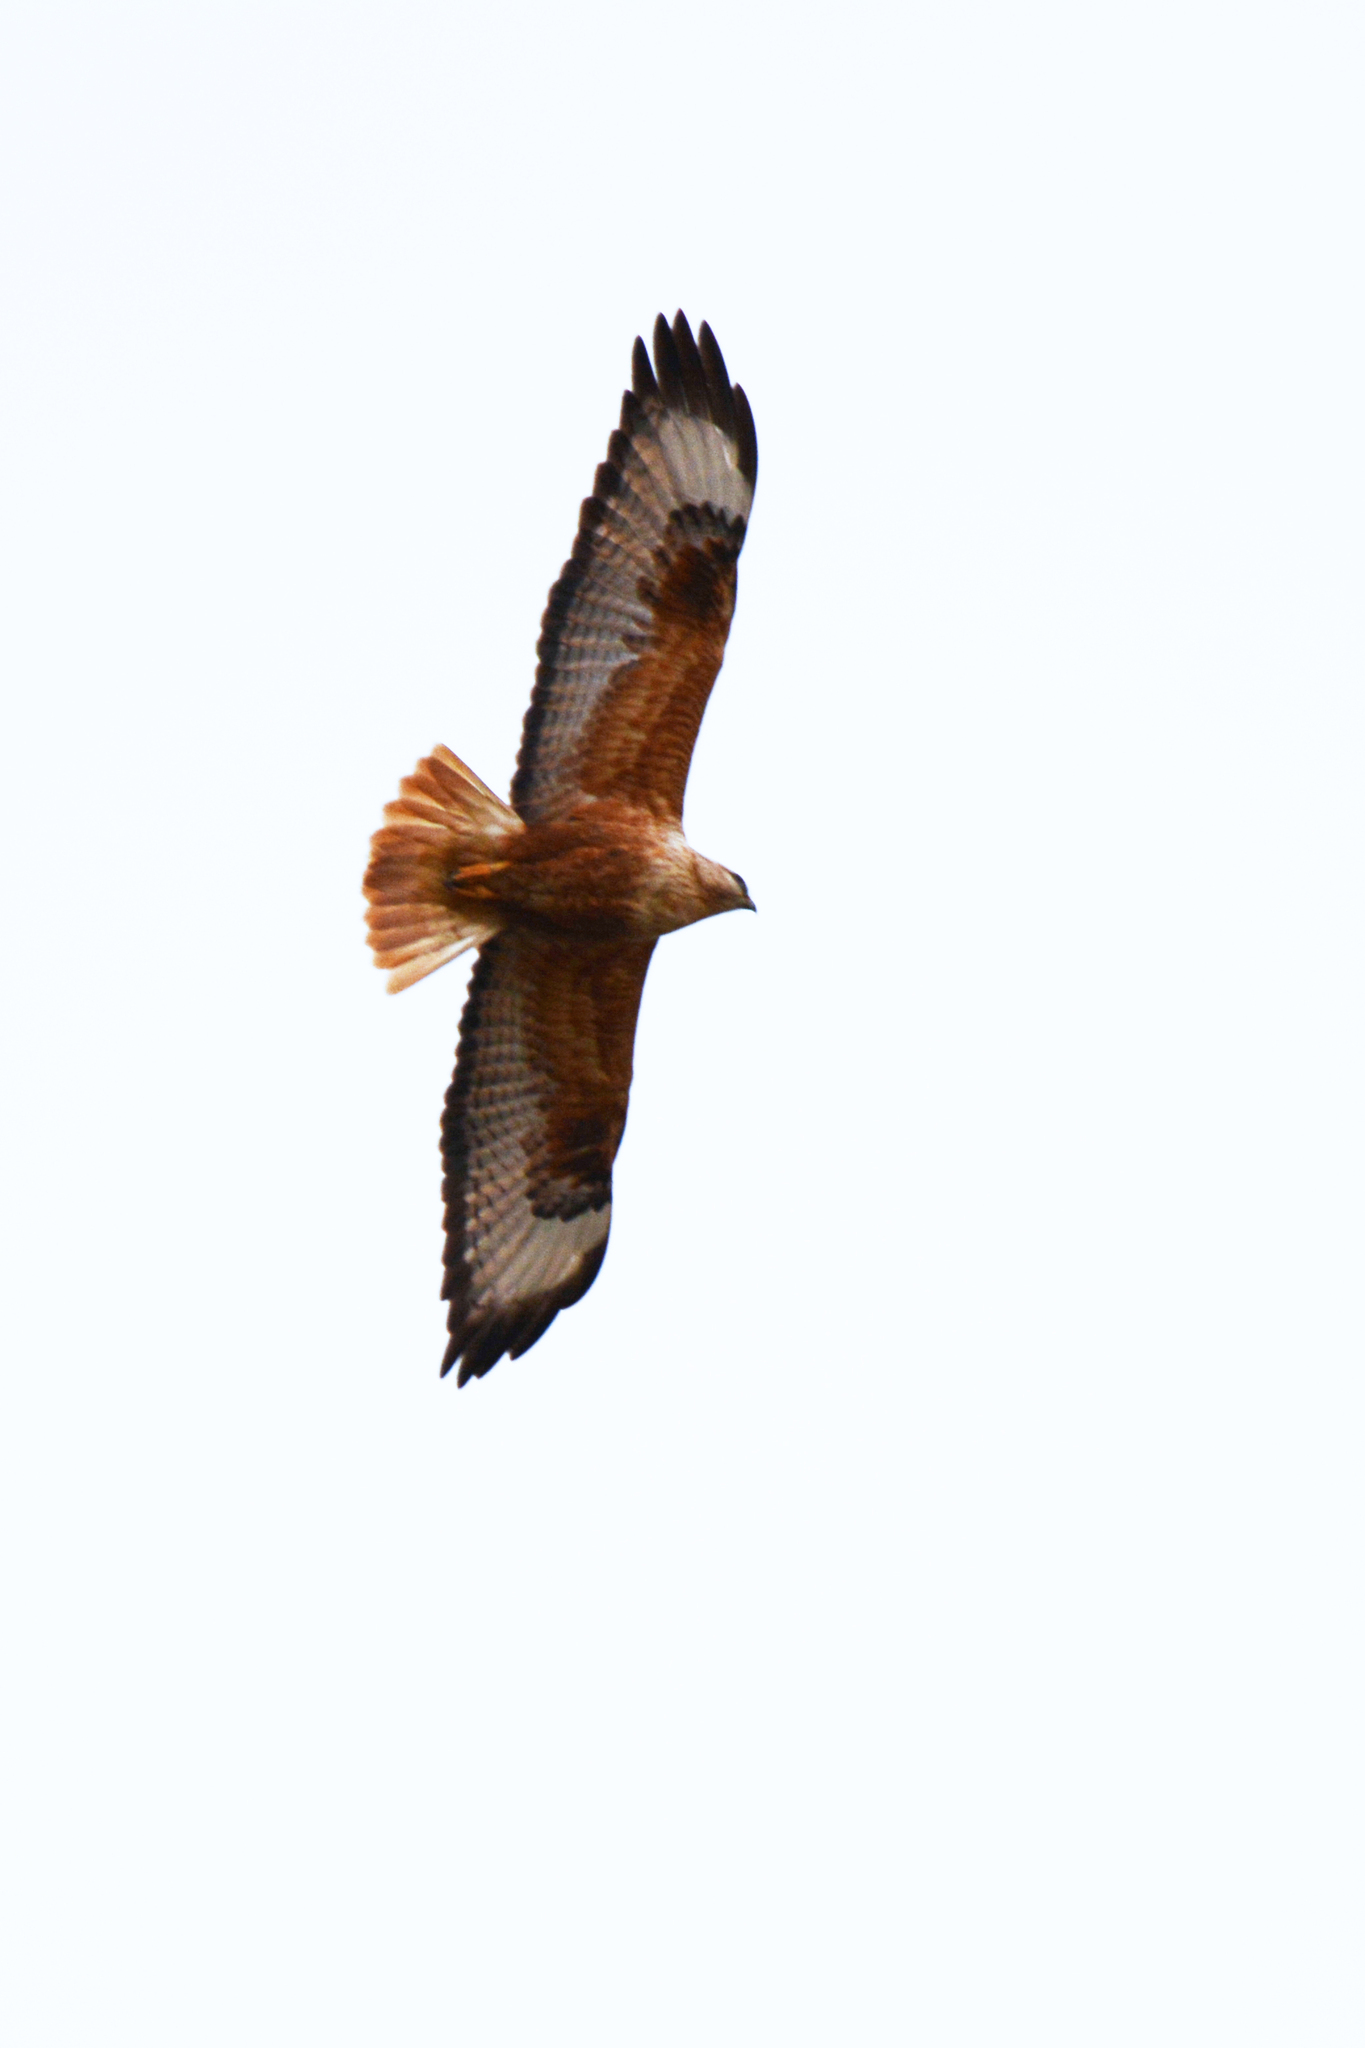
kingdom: Animalia
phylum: Chordata
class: Aves
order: Accipitriformes
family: Accipitridae
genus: Buteo
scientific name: Buteo rufinus
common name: Long-legged buzzard
